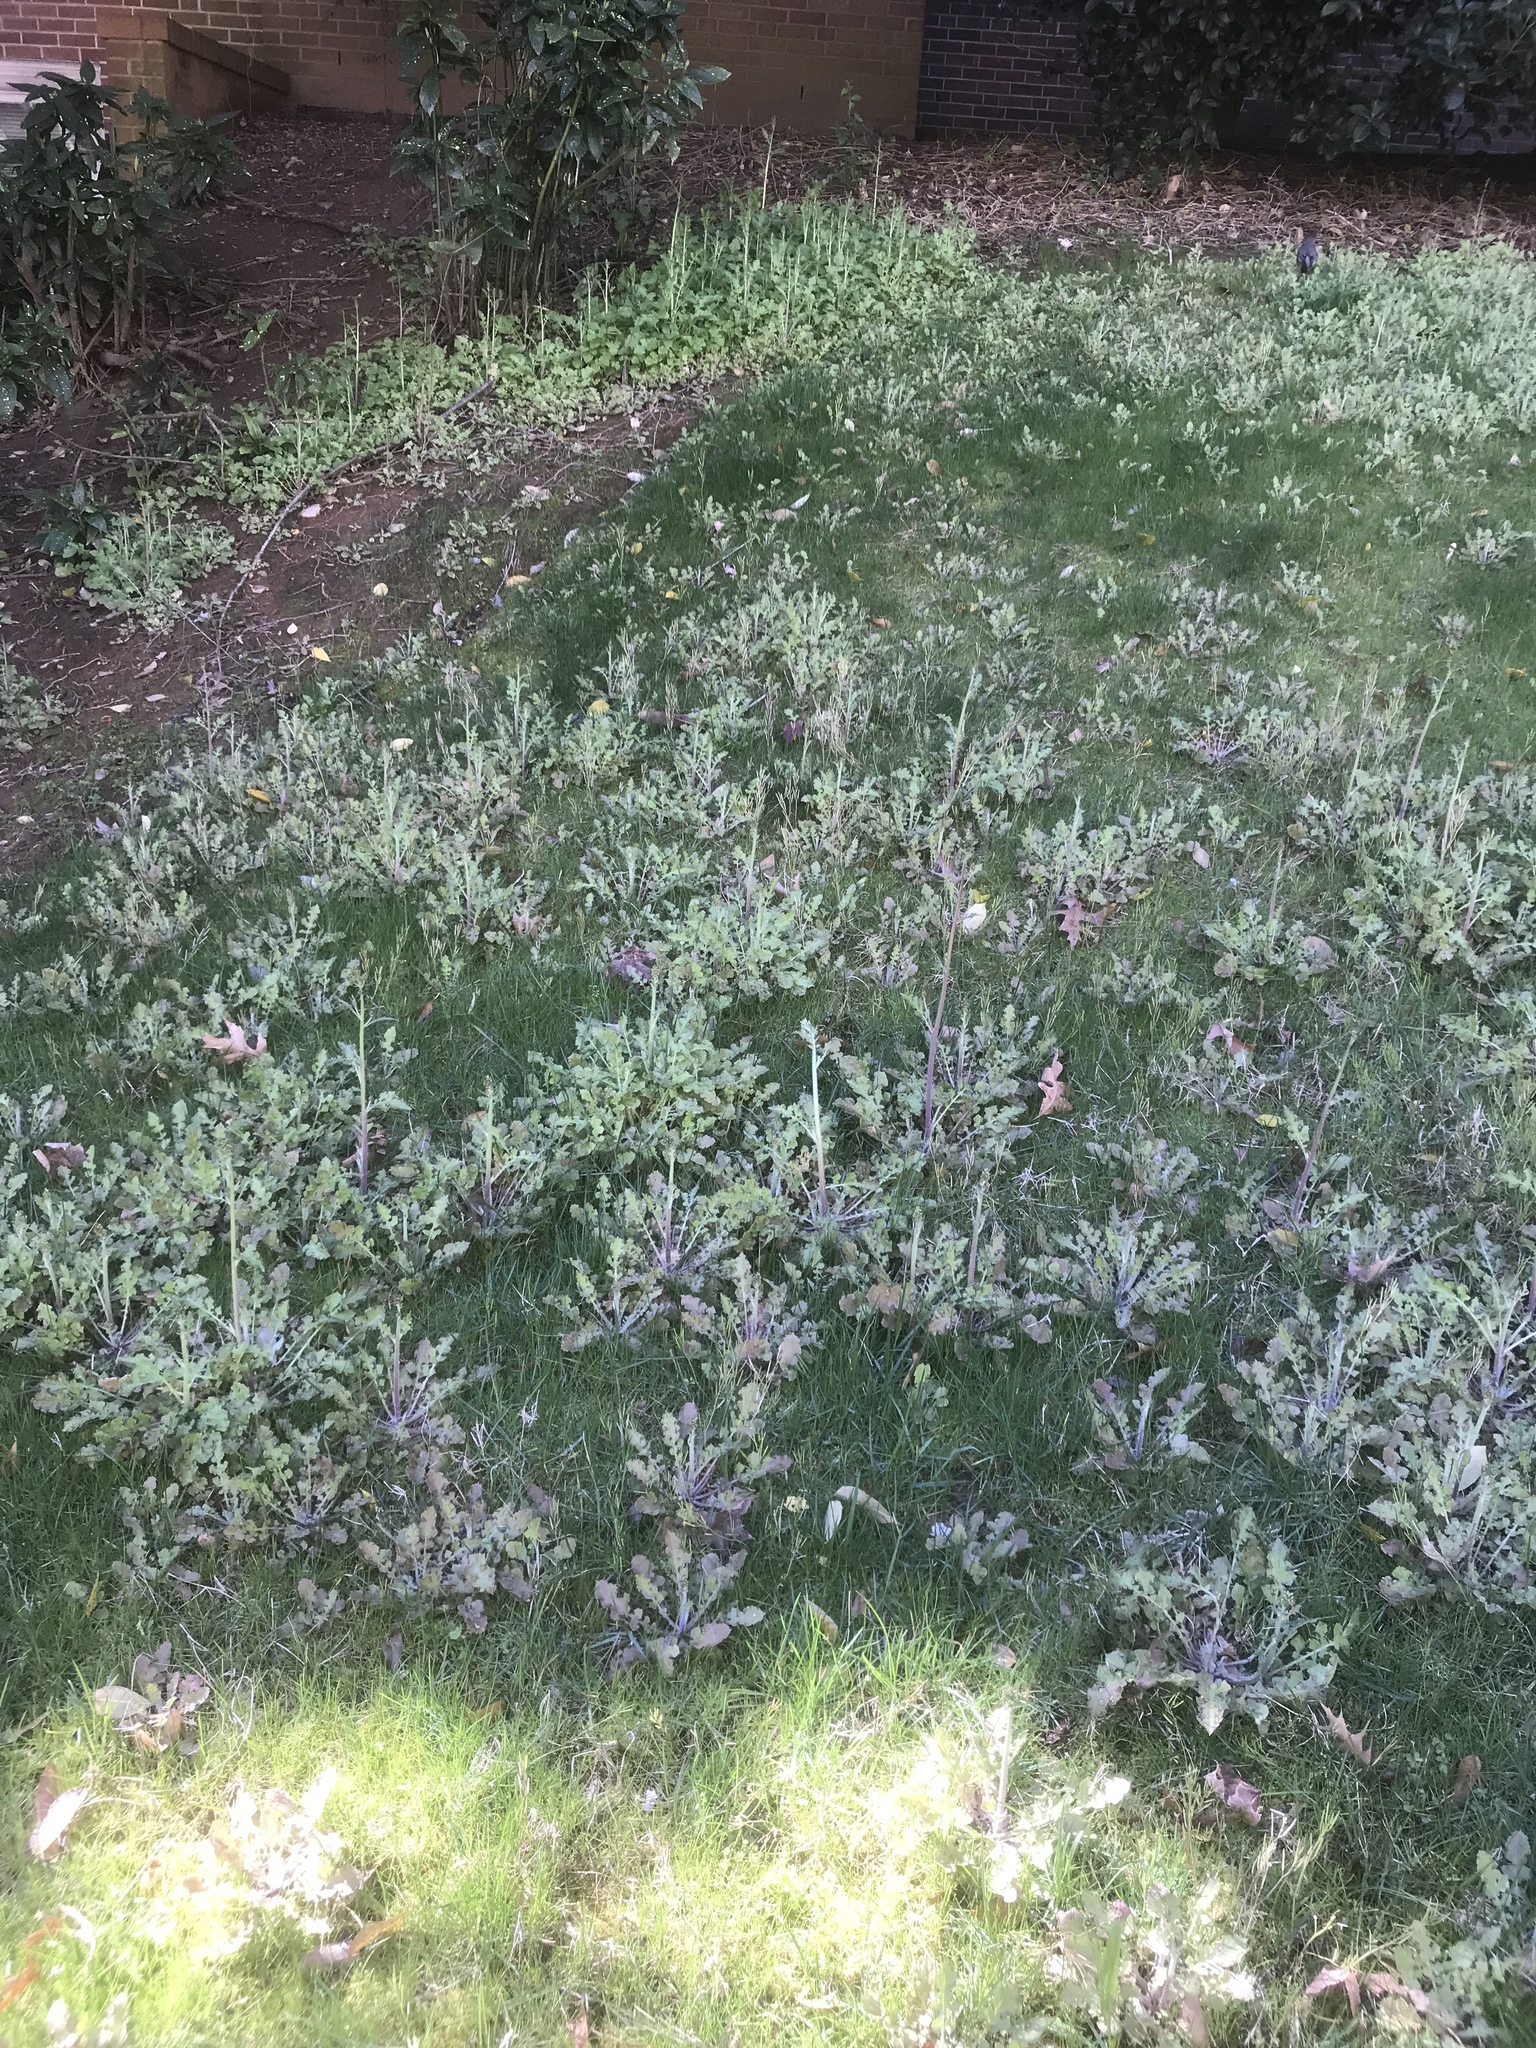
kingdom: Plantae
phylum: Tracheophyta
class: Magnoliopsida
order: Asterales
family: Asteraceae
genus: Youngia
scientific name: Youngia japonica
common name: Oriental false hawksbeard
